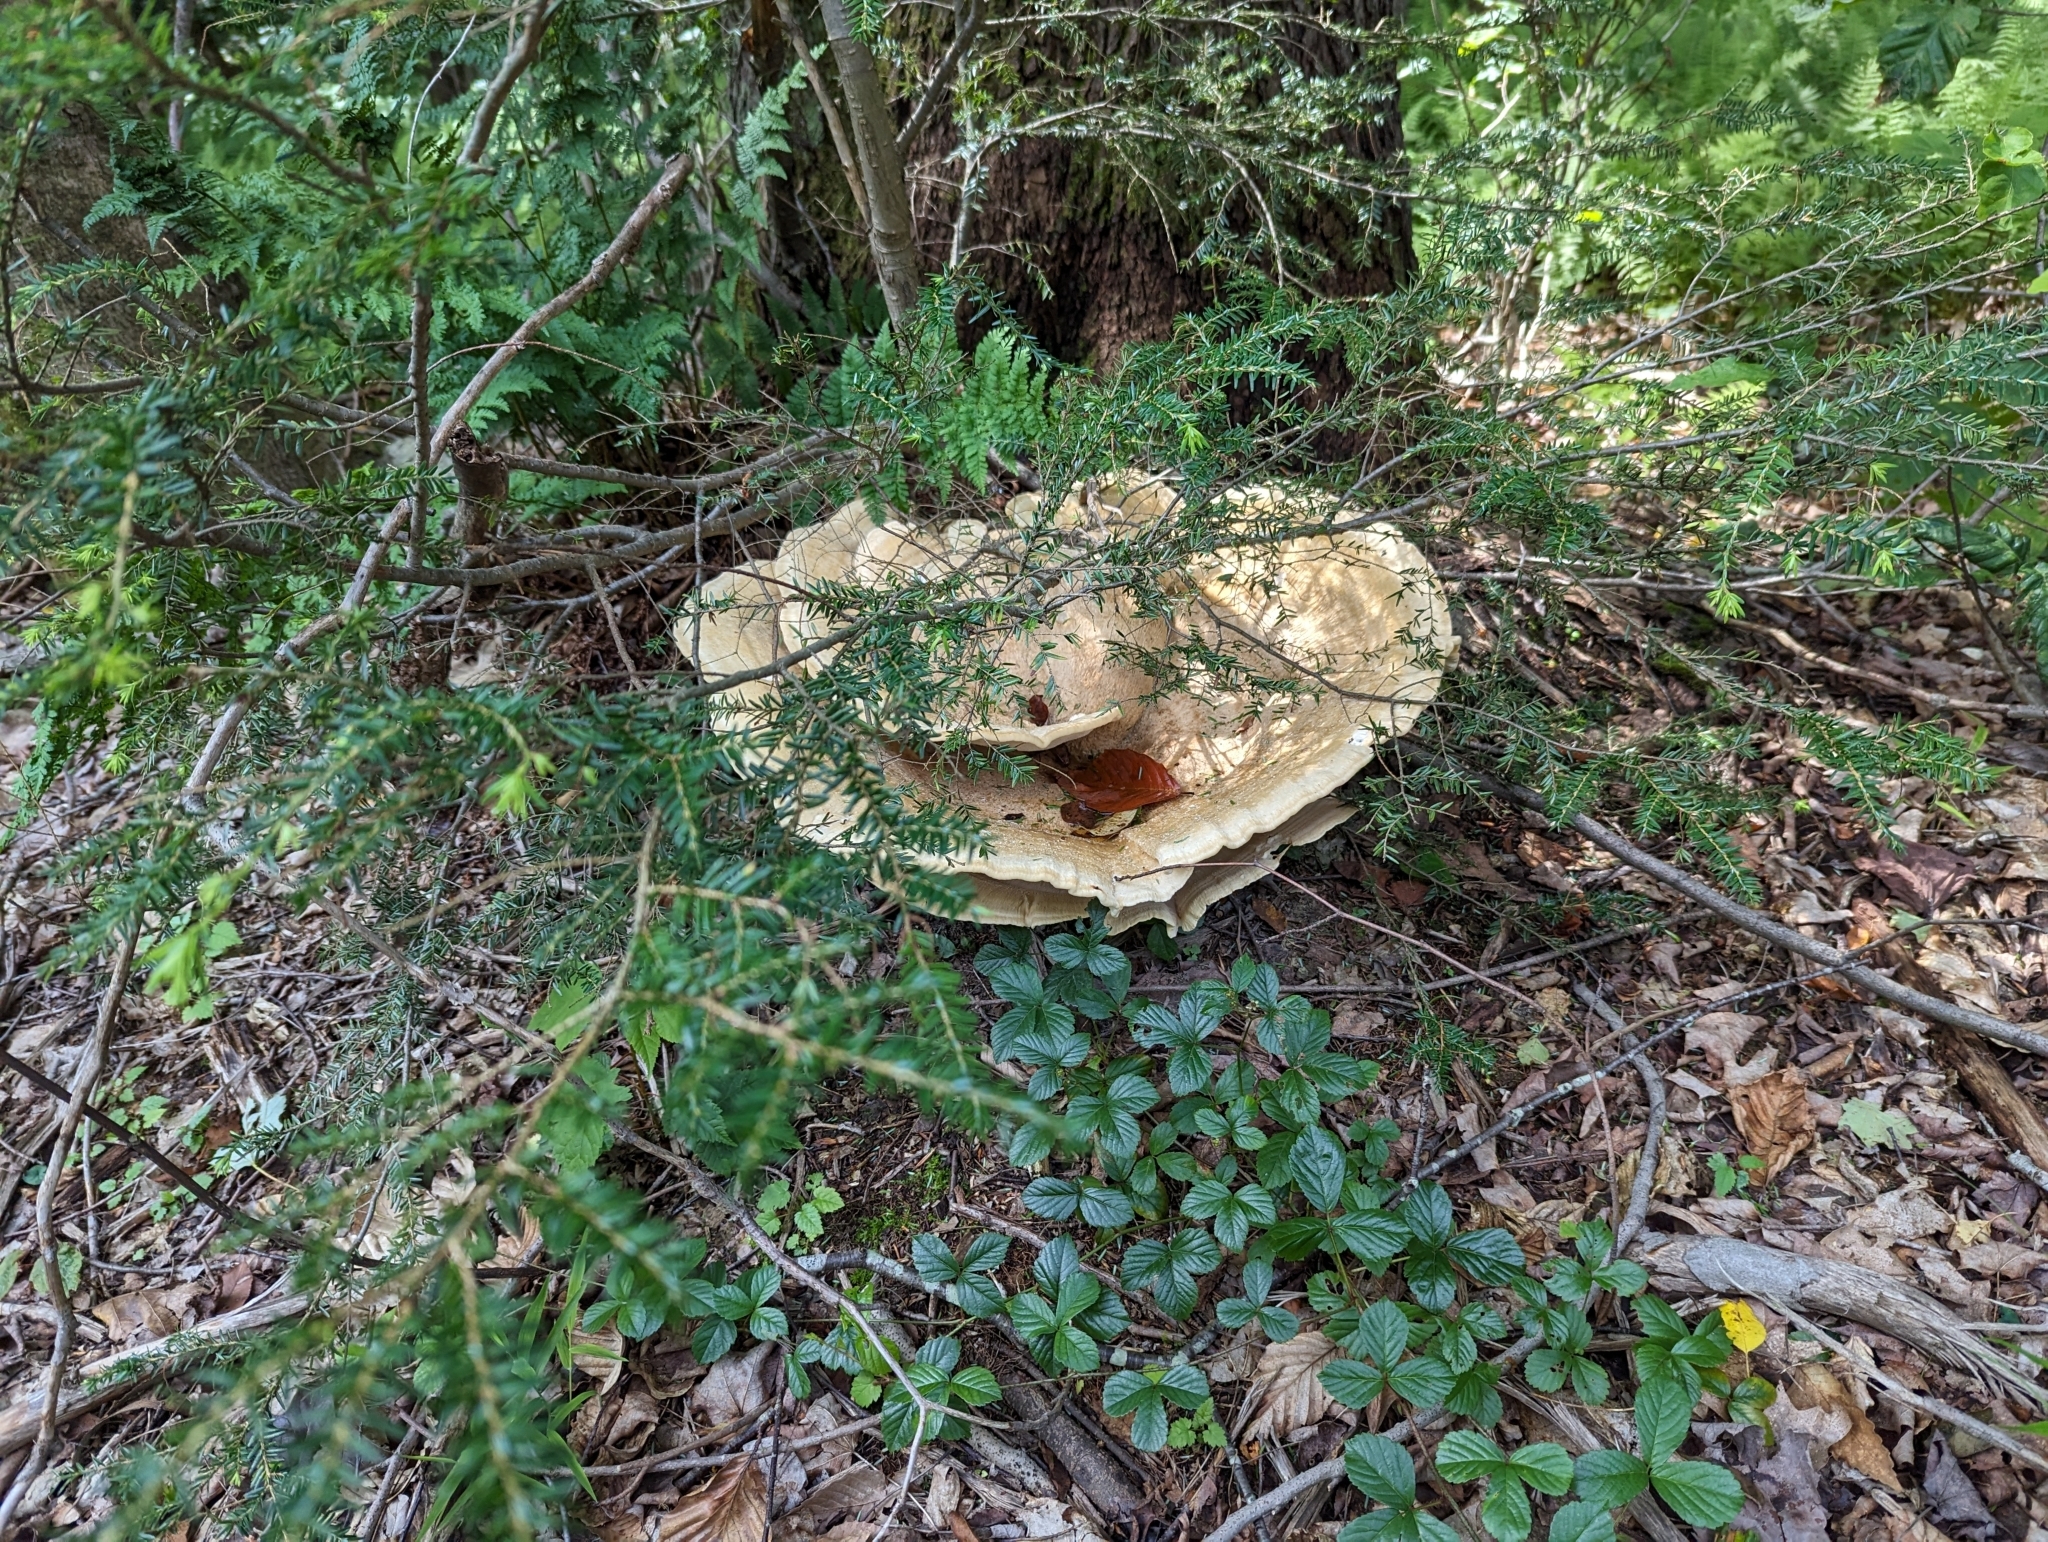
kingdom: Fungi
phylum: Basidiomycota
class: Agaricomycetes
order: Russulales
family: Bondarzewiaceae
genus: Bondarzewia
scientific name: Bondarzewia berkeleyi
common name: Berkeley's polypore
